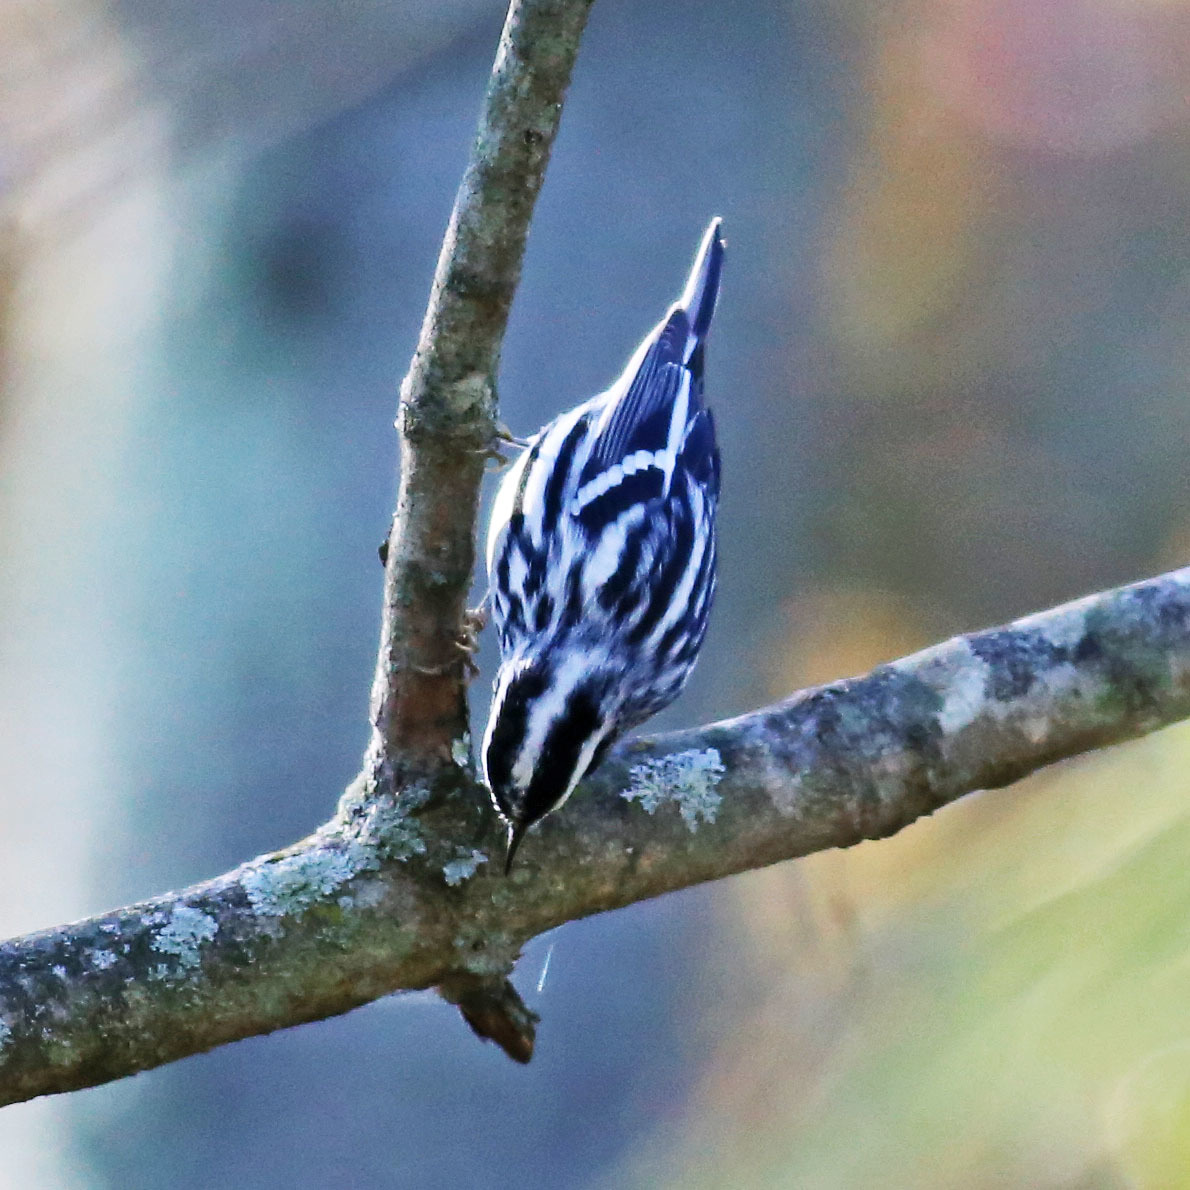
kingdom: Animalia
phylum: Chordata
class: Aves
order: Passeriformes
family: Parulidae
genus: Mniotilta
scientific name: Mniotilta varia
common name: Black-and-white warbler
